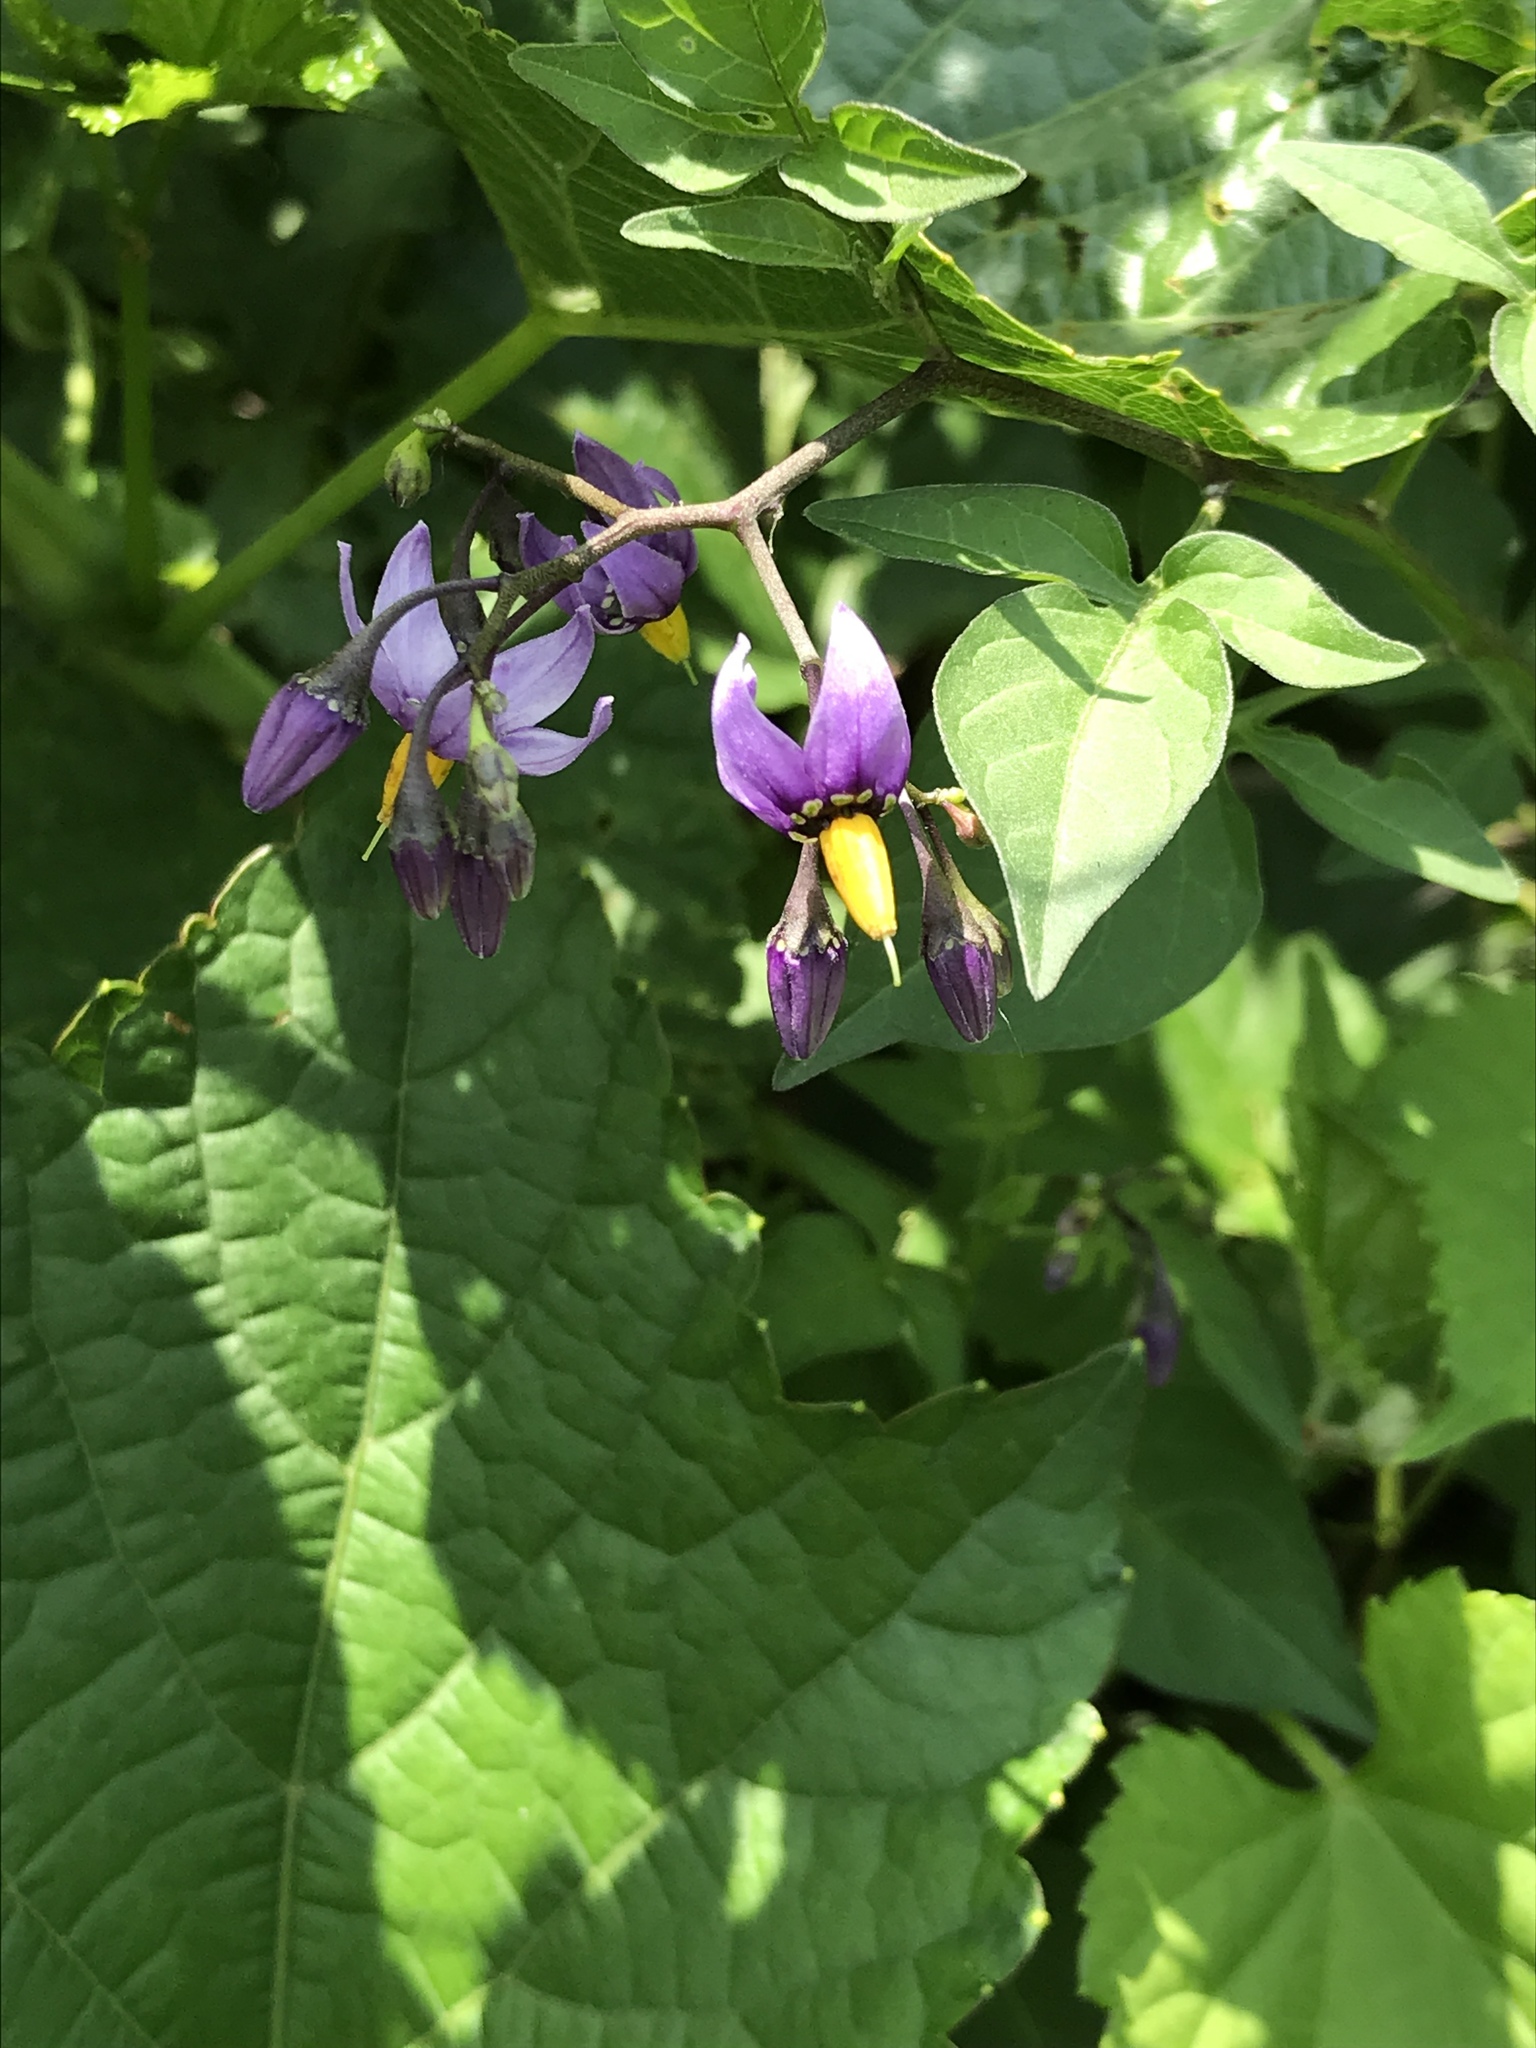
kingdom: Plantae
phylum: Tracheophyta
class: Magnoliopsida
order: Solanales
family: Solanaceae
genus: Solanum
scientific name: Solanum dulcamara
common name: Climbing nightshade
